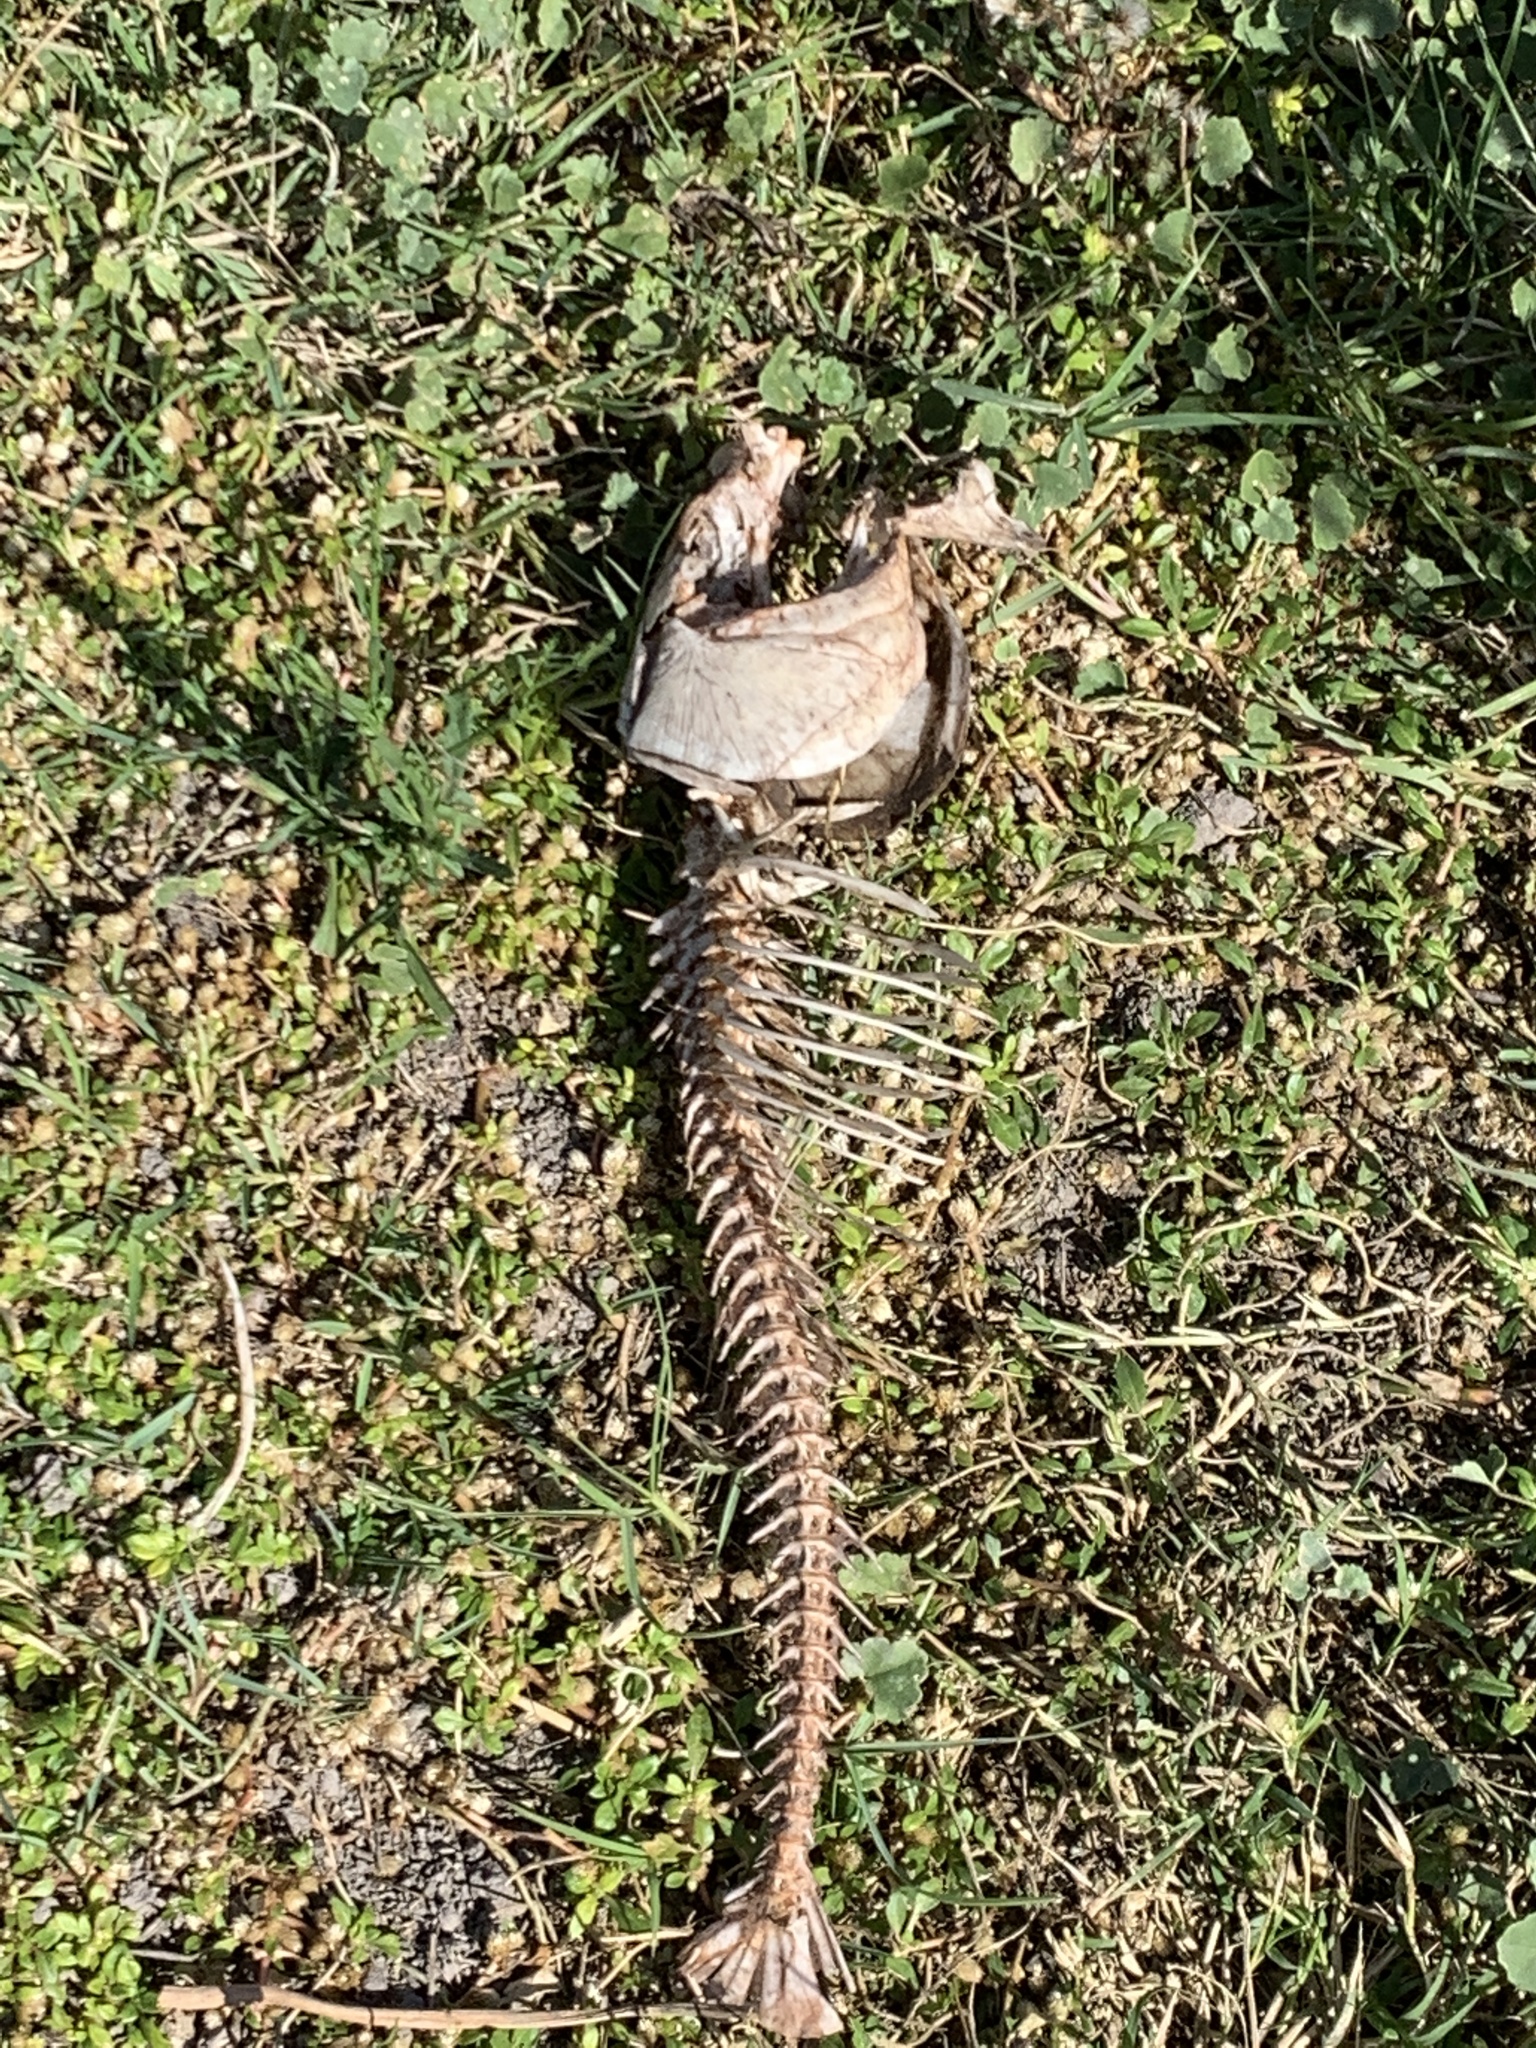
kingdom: Animalia
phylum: Chordata
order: Cypriniformes
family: Cyprinidae
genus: Cyprinus
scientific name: Cyprinus carpio
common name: Common carp
